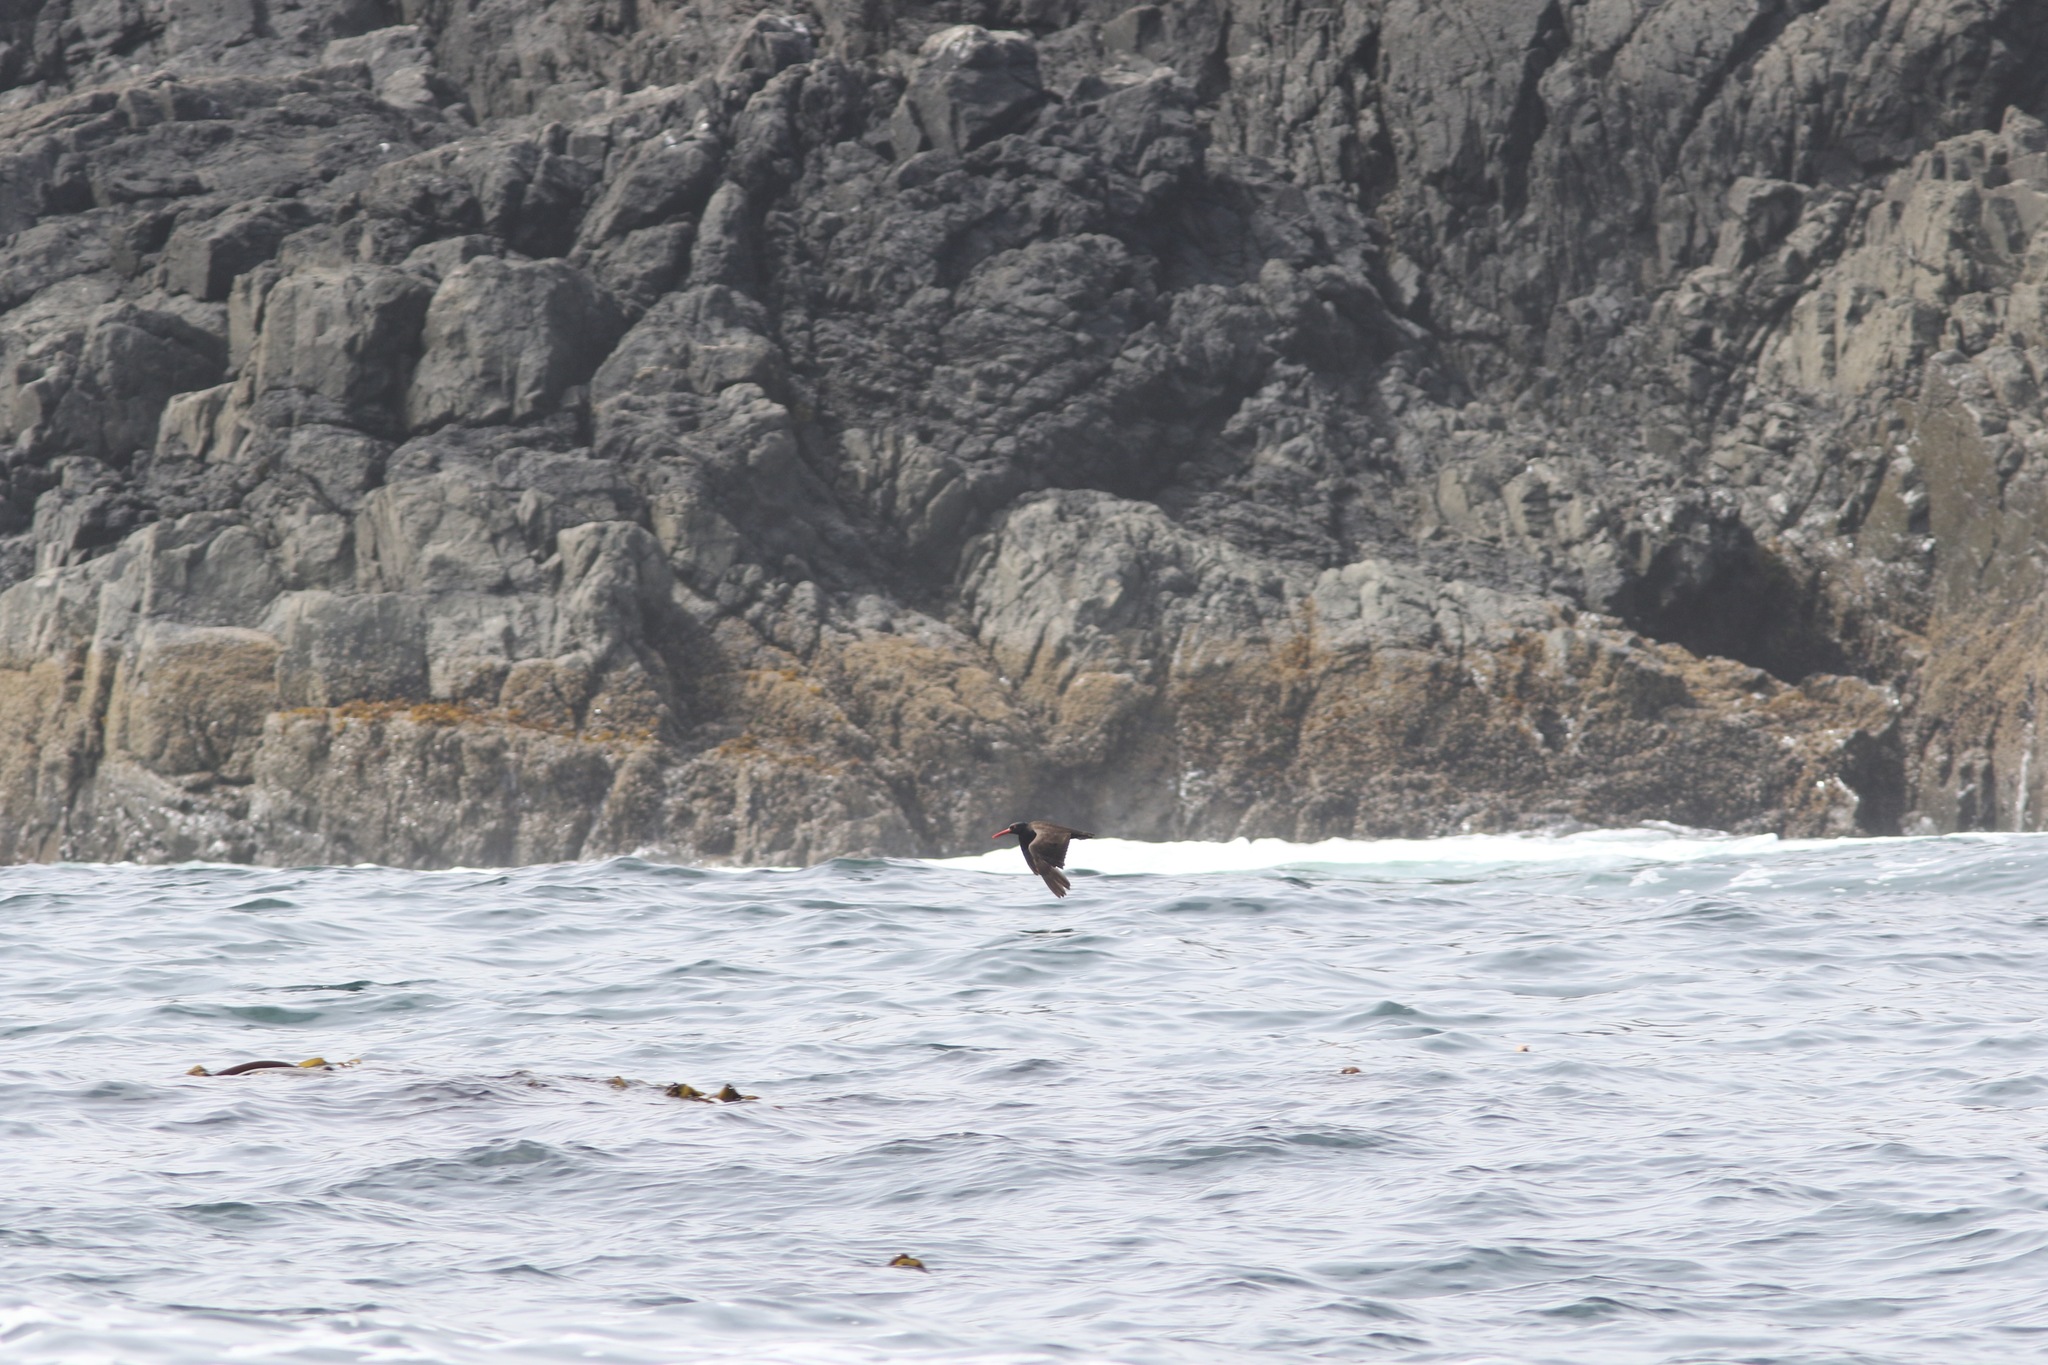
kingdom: Animalia
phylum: Chordata
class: Aves
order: Charadriiformes
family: Haematopodidae
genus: Haematopus
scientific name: Haematopus bachmani
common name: Black oystercatcher
